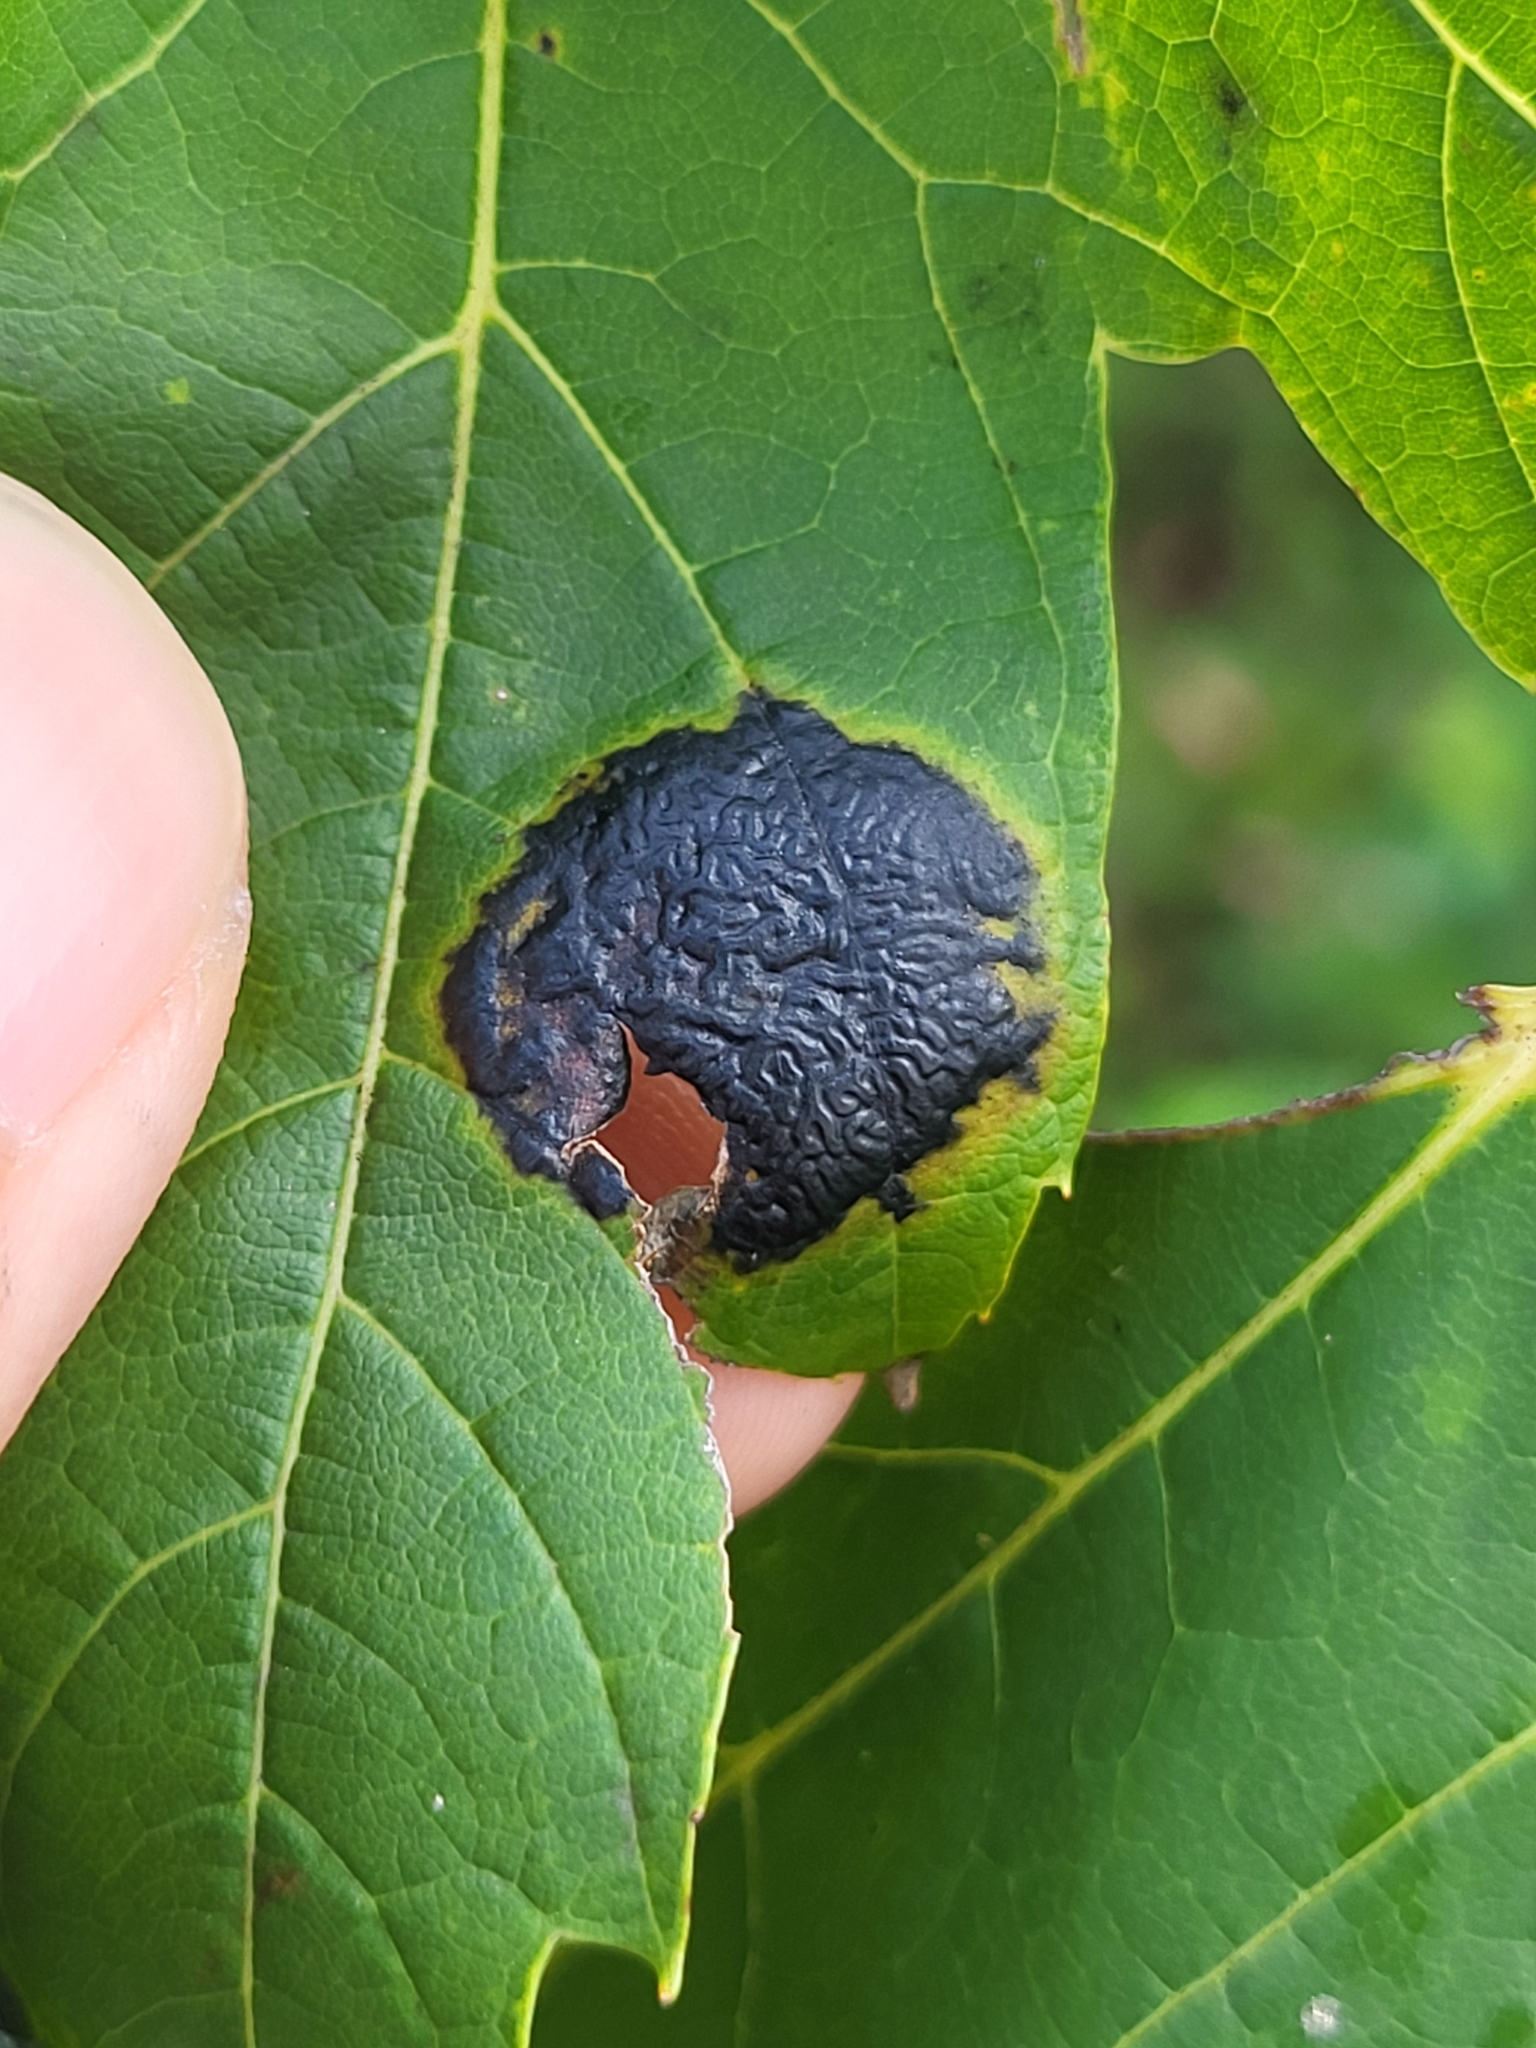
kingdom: Fungi
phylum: Ascomycota
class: Leotiomycetes
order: Rhytismatales
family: Rhytismataceae
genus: Rhytisma
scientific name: Rhytisma americanum
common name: American tar spot
